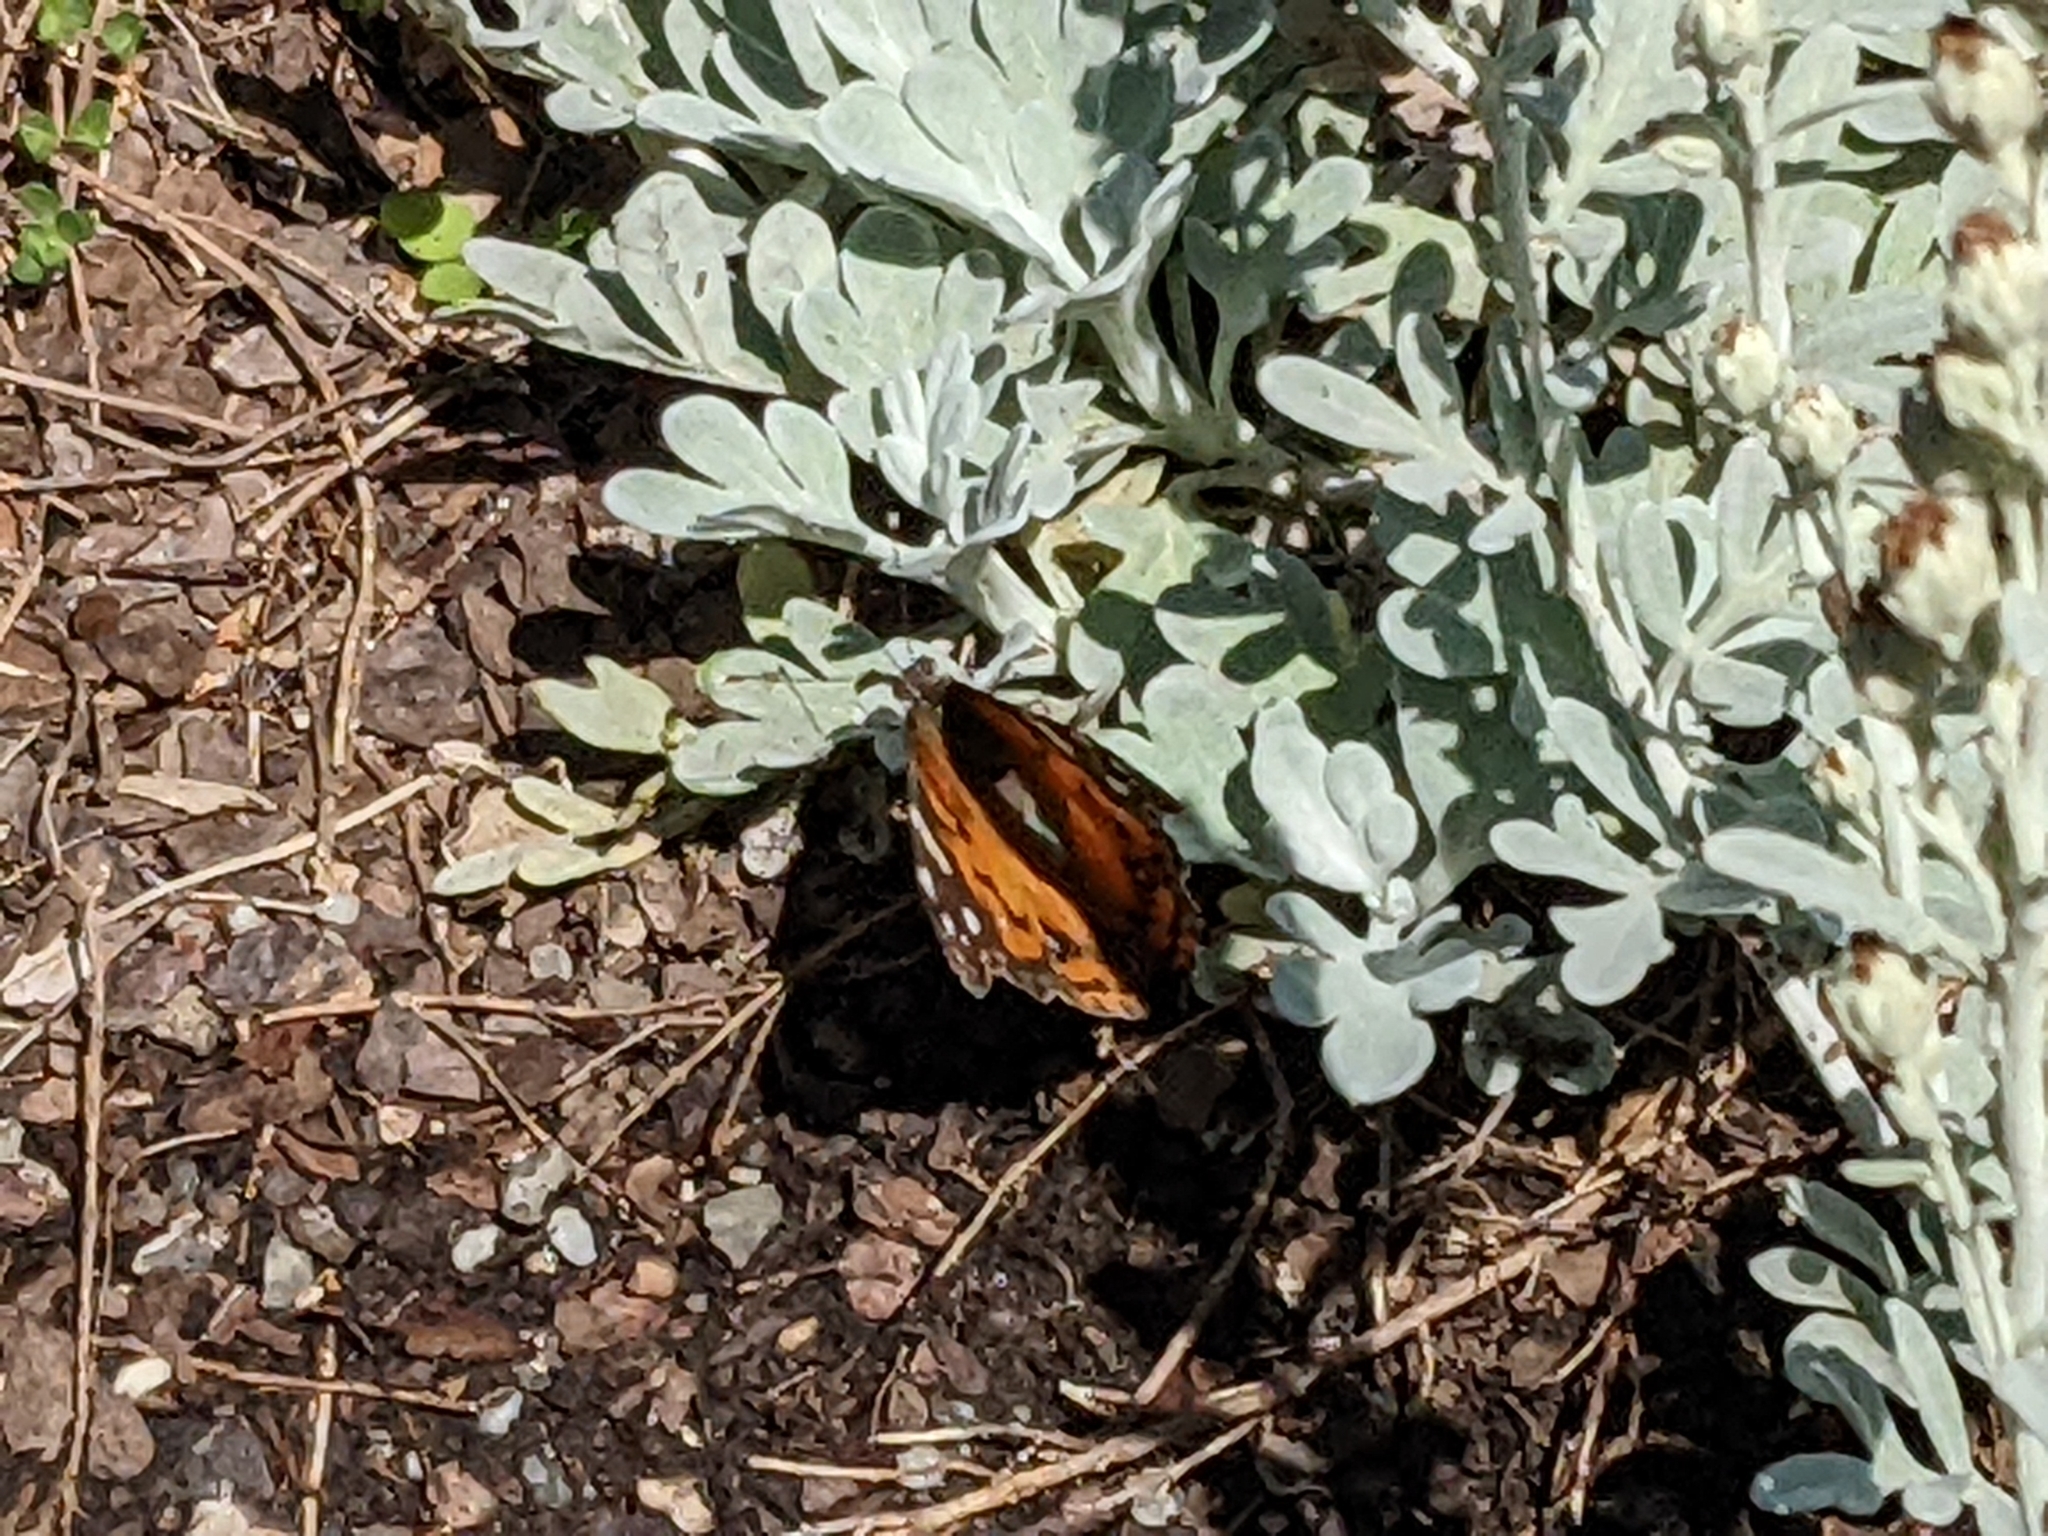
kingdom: Animalia
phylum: Arthropoda
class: Insecta
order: Lepidoptera
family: Nymphalidae
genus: Vanessa
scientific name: Vanessa virginiensis
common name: American lady
